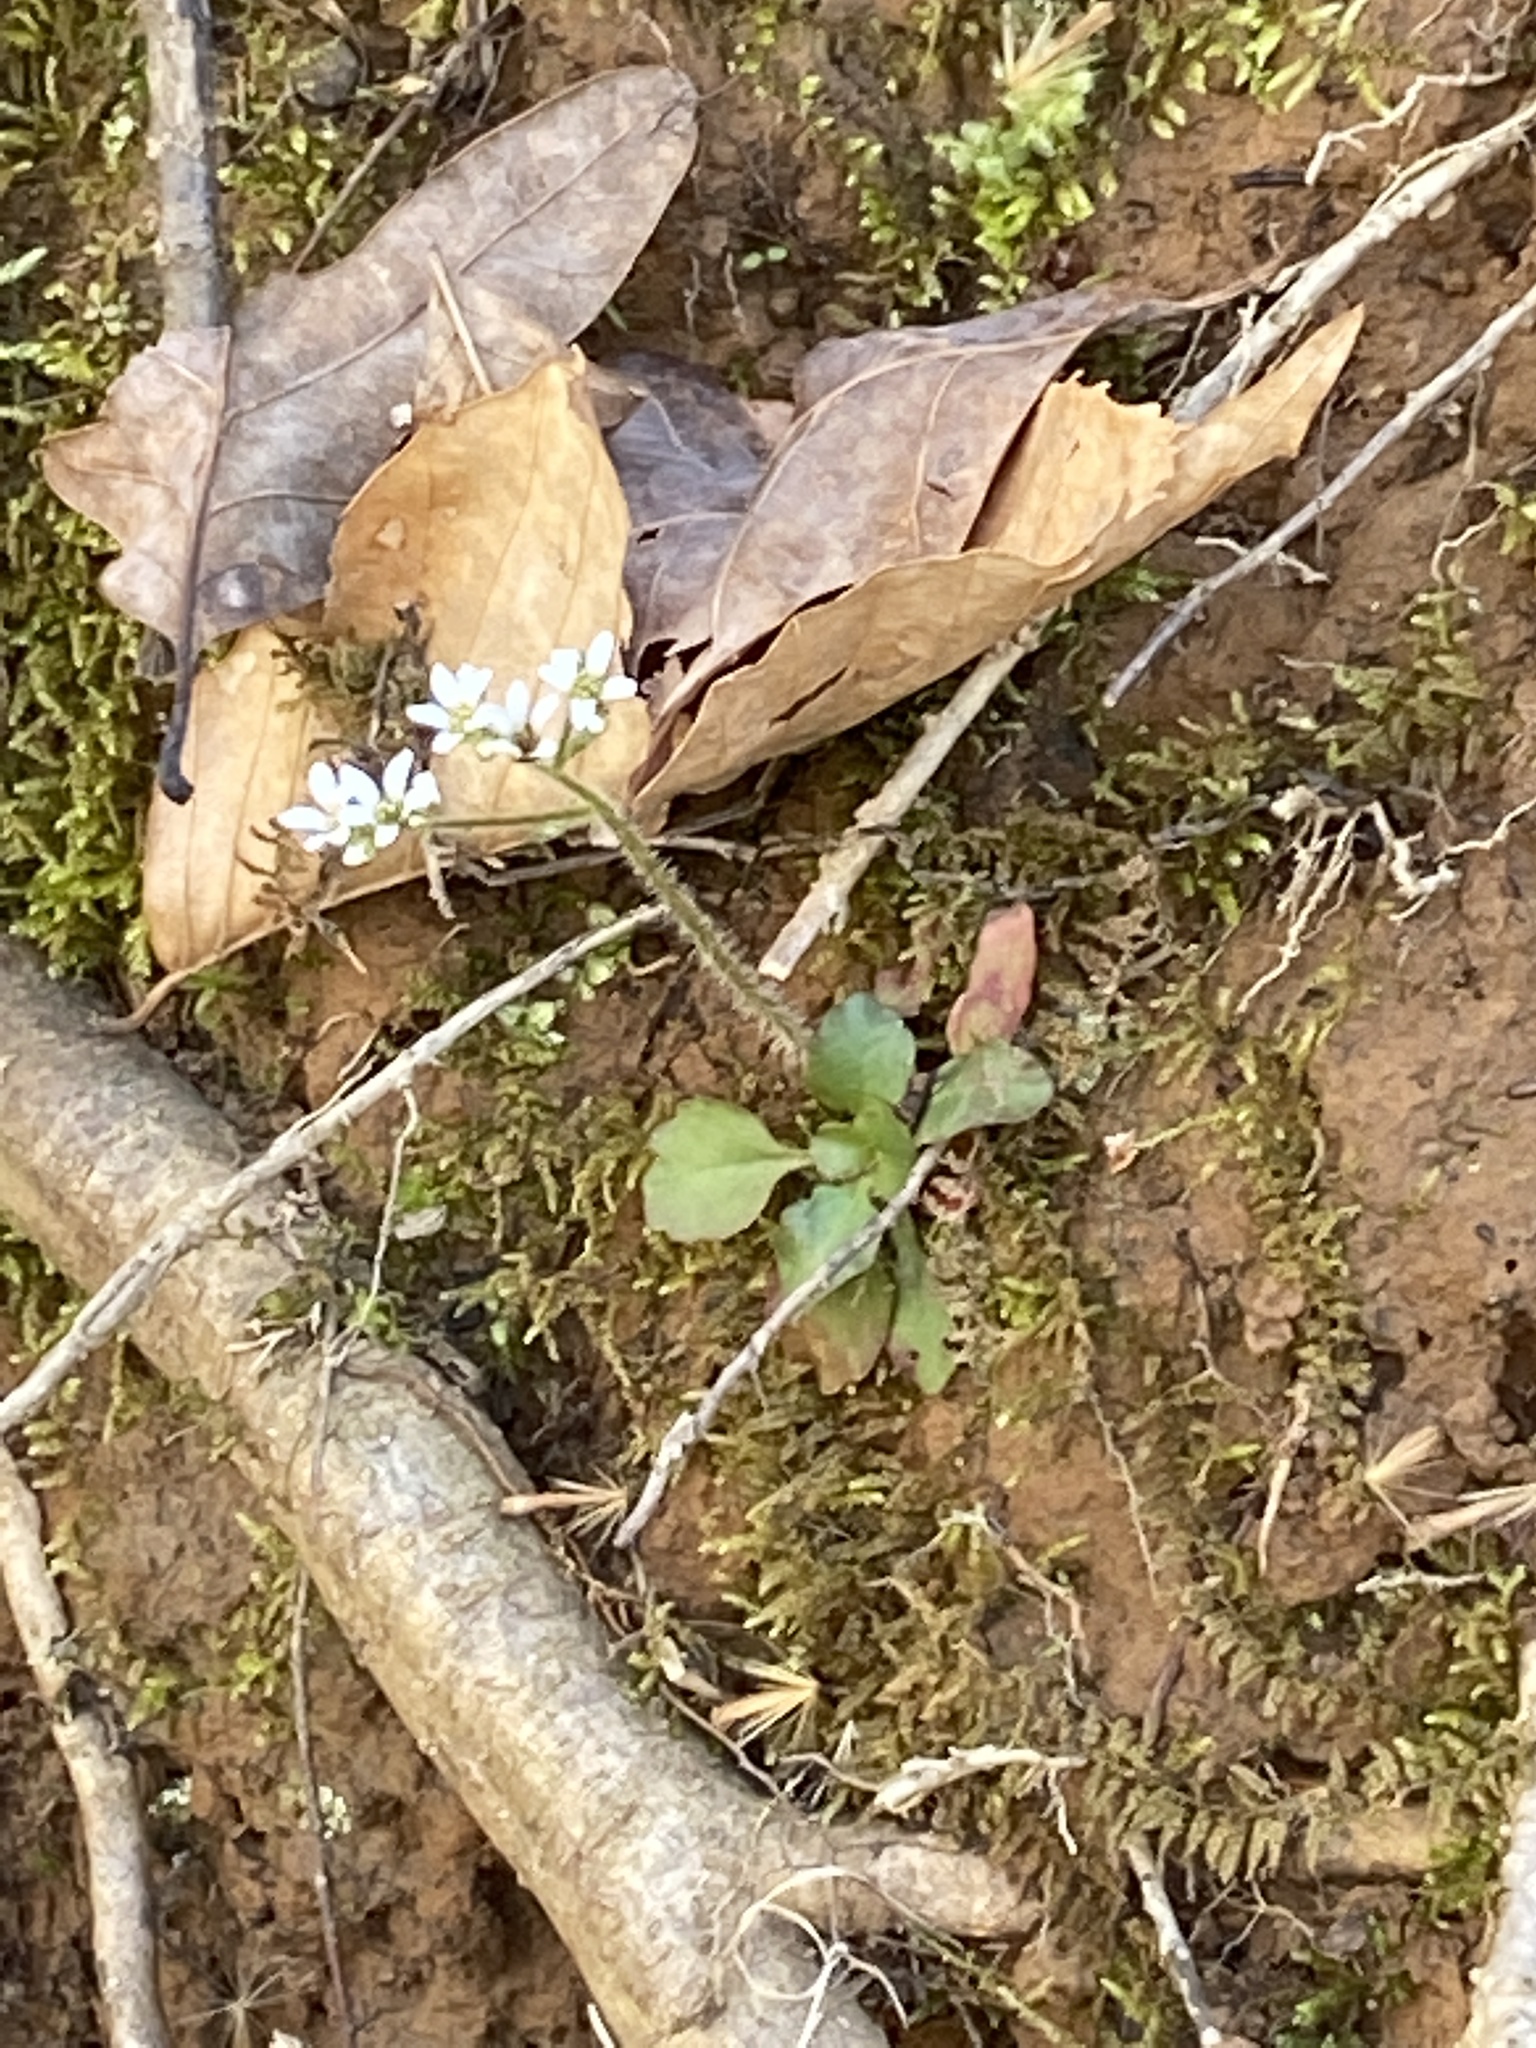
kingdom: Plantae
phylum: Tracheophyta
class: Magnoliopsida
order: Saxifragales
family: Saxifragaceae
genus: Micranthes
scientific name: Micranthes virginiensis
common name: Early saxifrage
